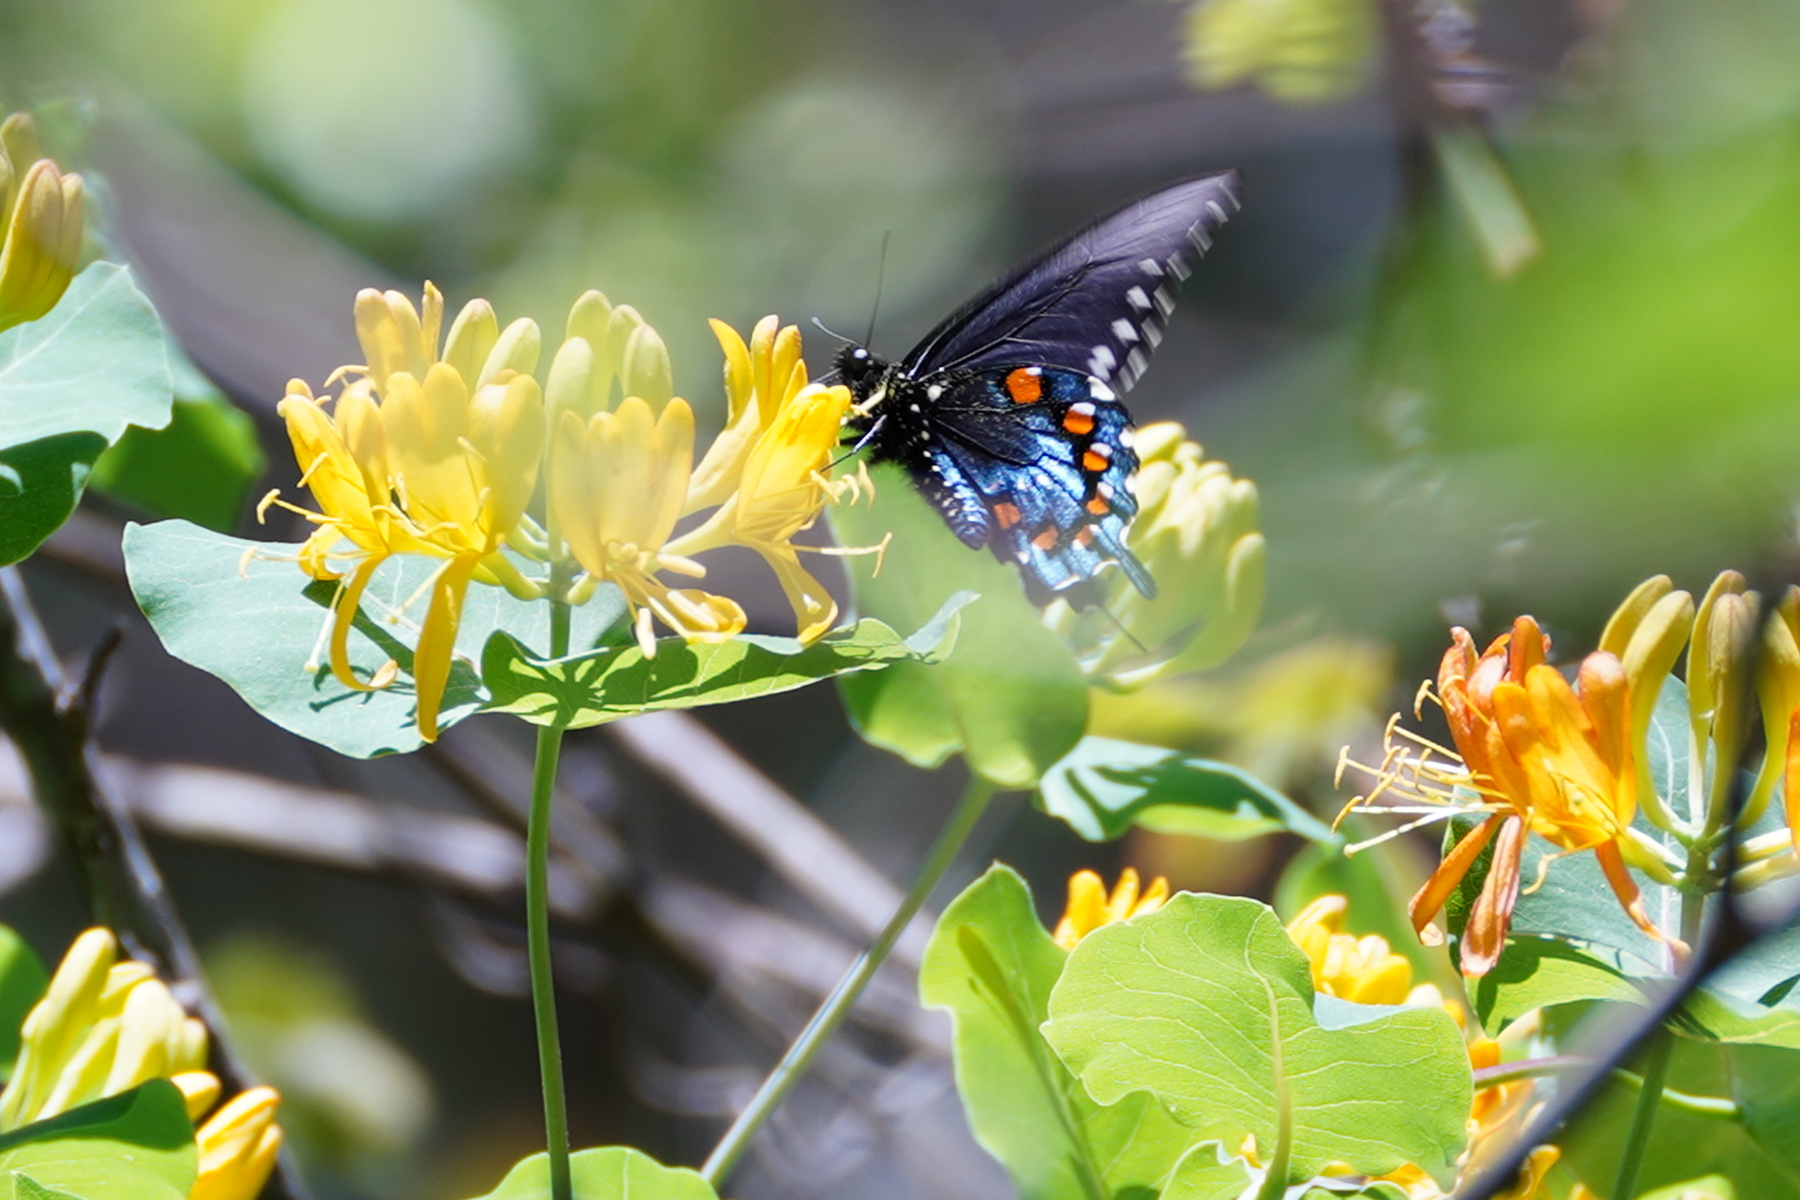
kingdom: Animalia
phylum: Arthropoda
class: Insecta
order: Lepidoptera
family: Papilionidae
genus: Battus
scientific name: Battus philenor
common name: Pipevine swallowtail
